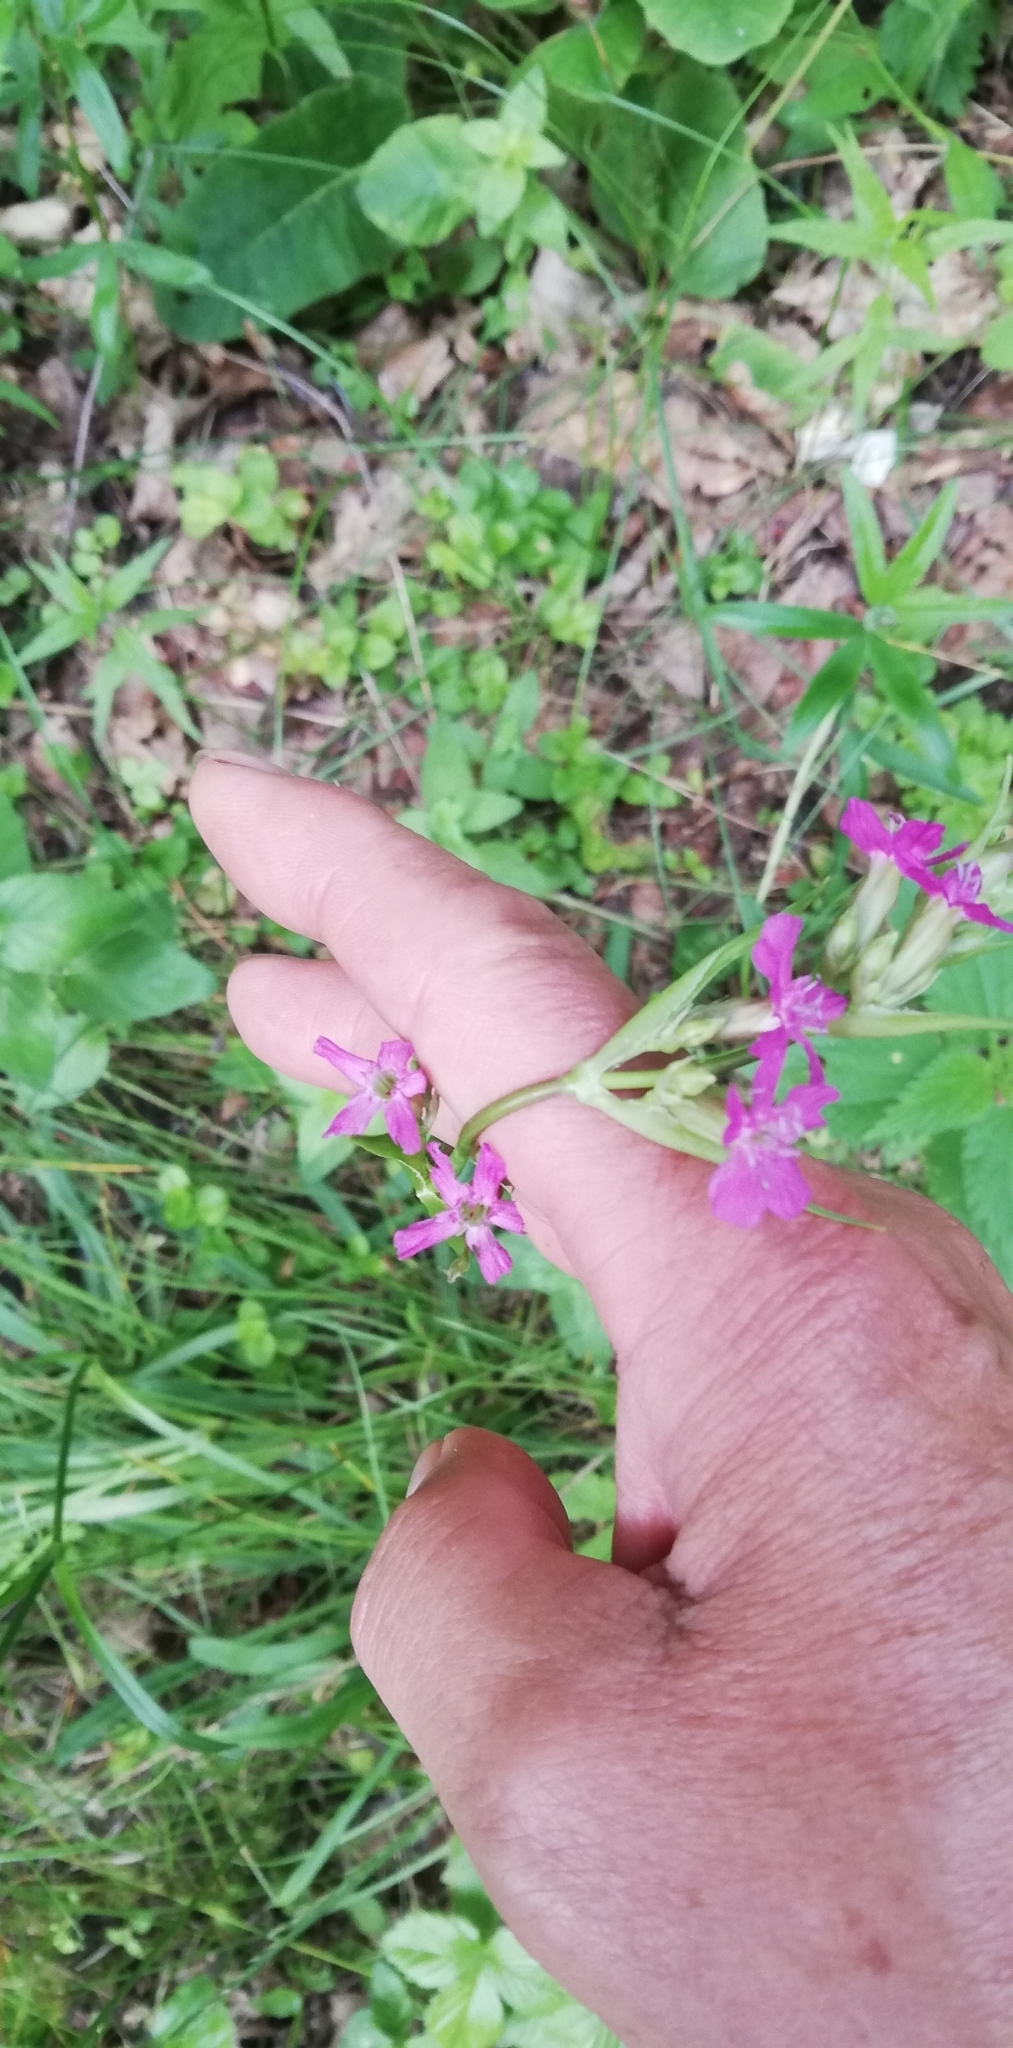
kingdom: Plantae
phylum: Tracheophyta
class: Magnoliopsida
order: Caryophyllales
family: Caryophyllaceae
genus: Viscaria
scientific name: Viscaria vulgaris
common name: Clammy campion
